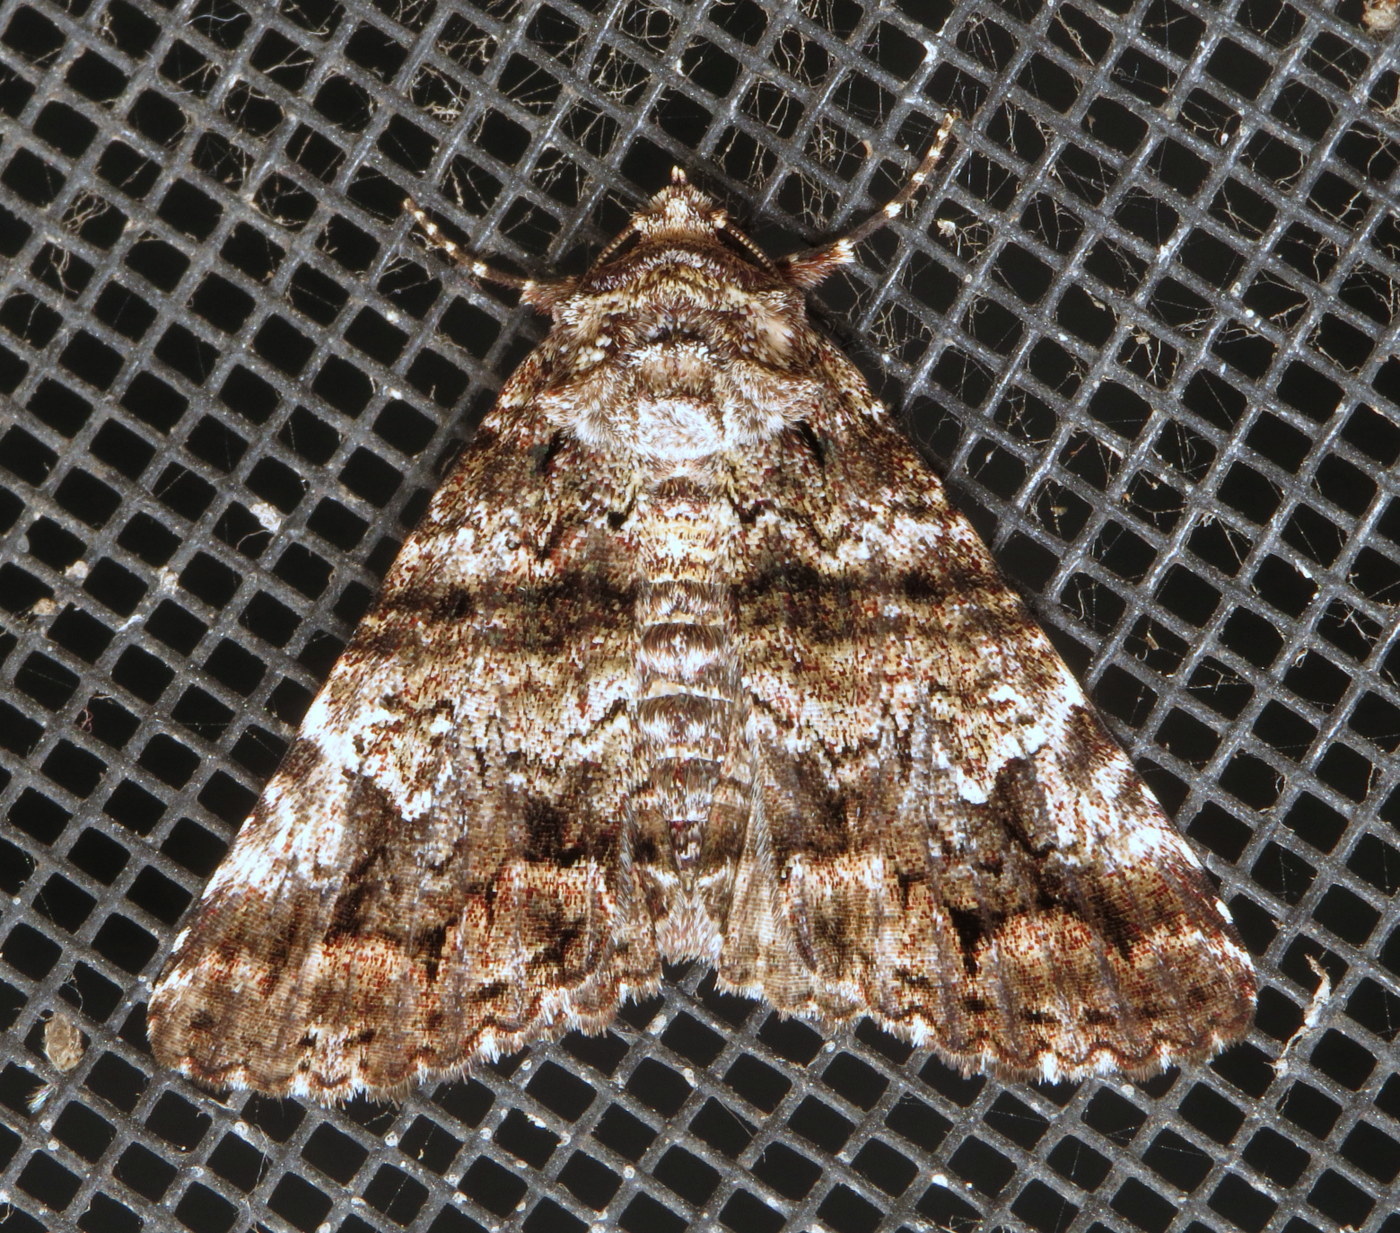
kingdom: Animalia
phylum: Arthropoda
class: Insecta
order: Lepidoptera
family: Erebidae
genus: Metria
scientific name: Metria amella
